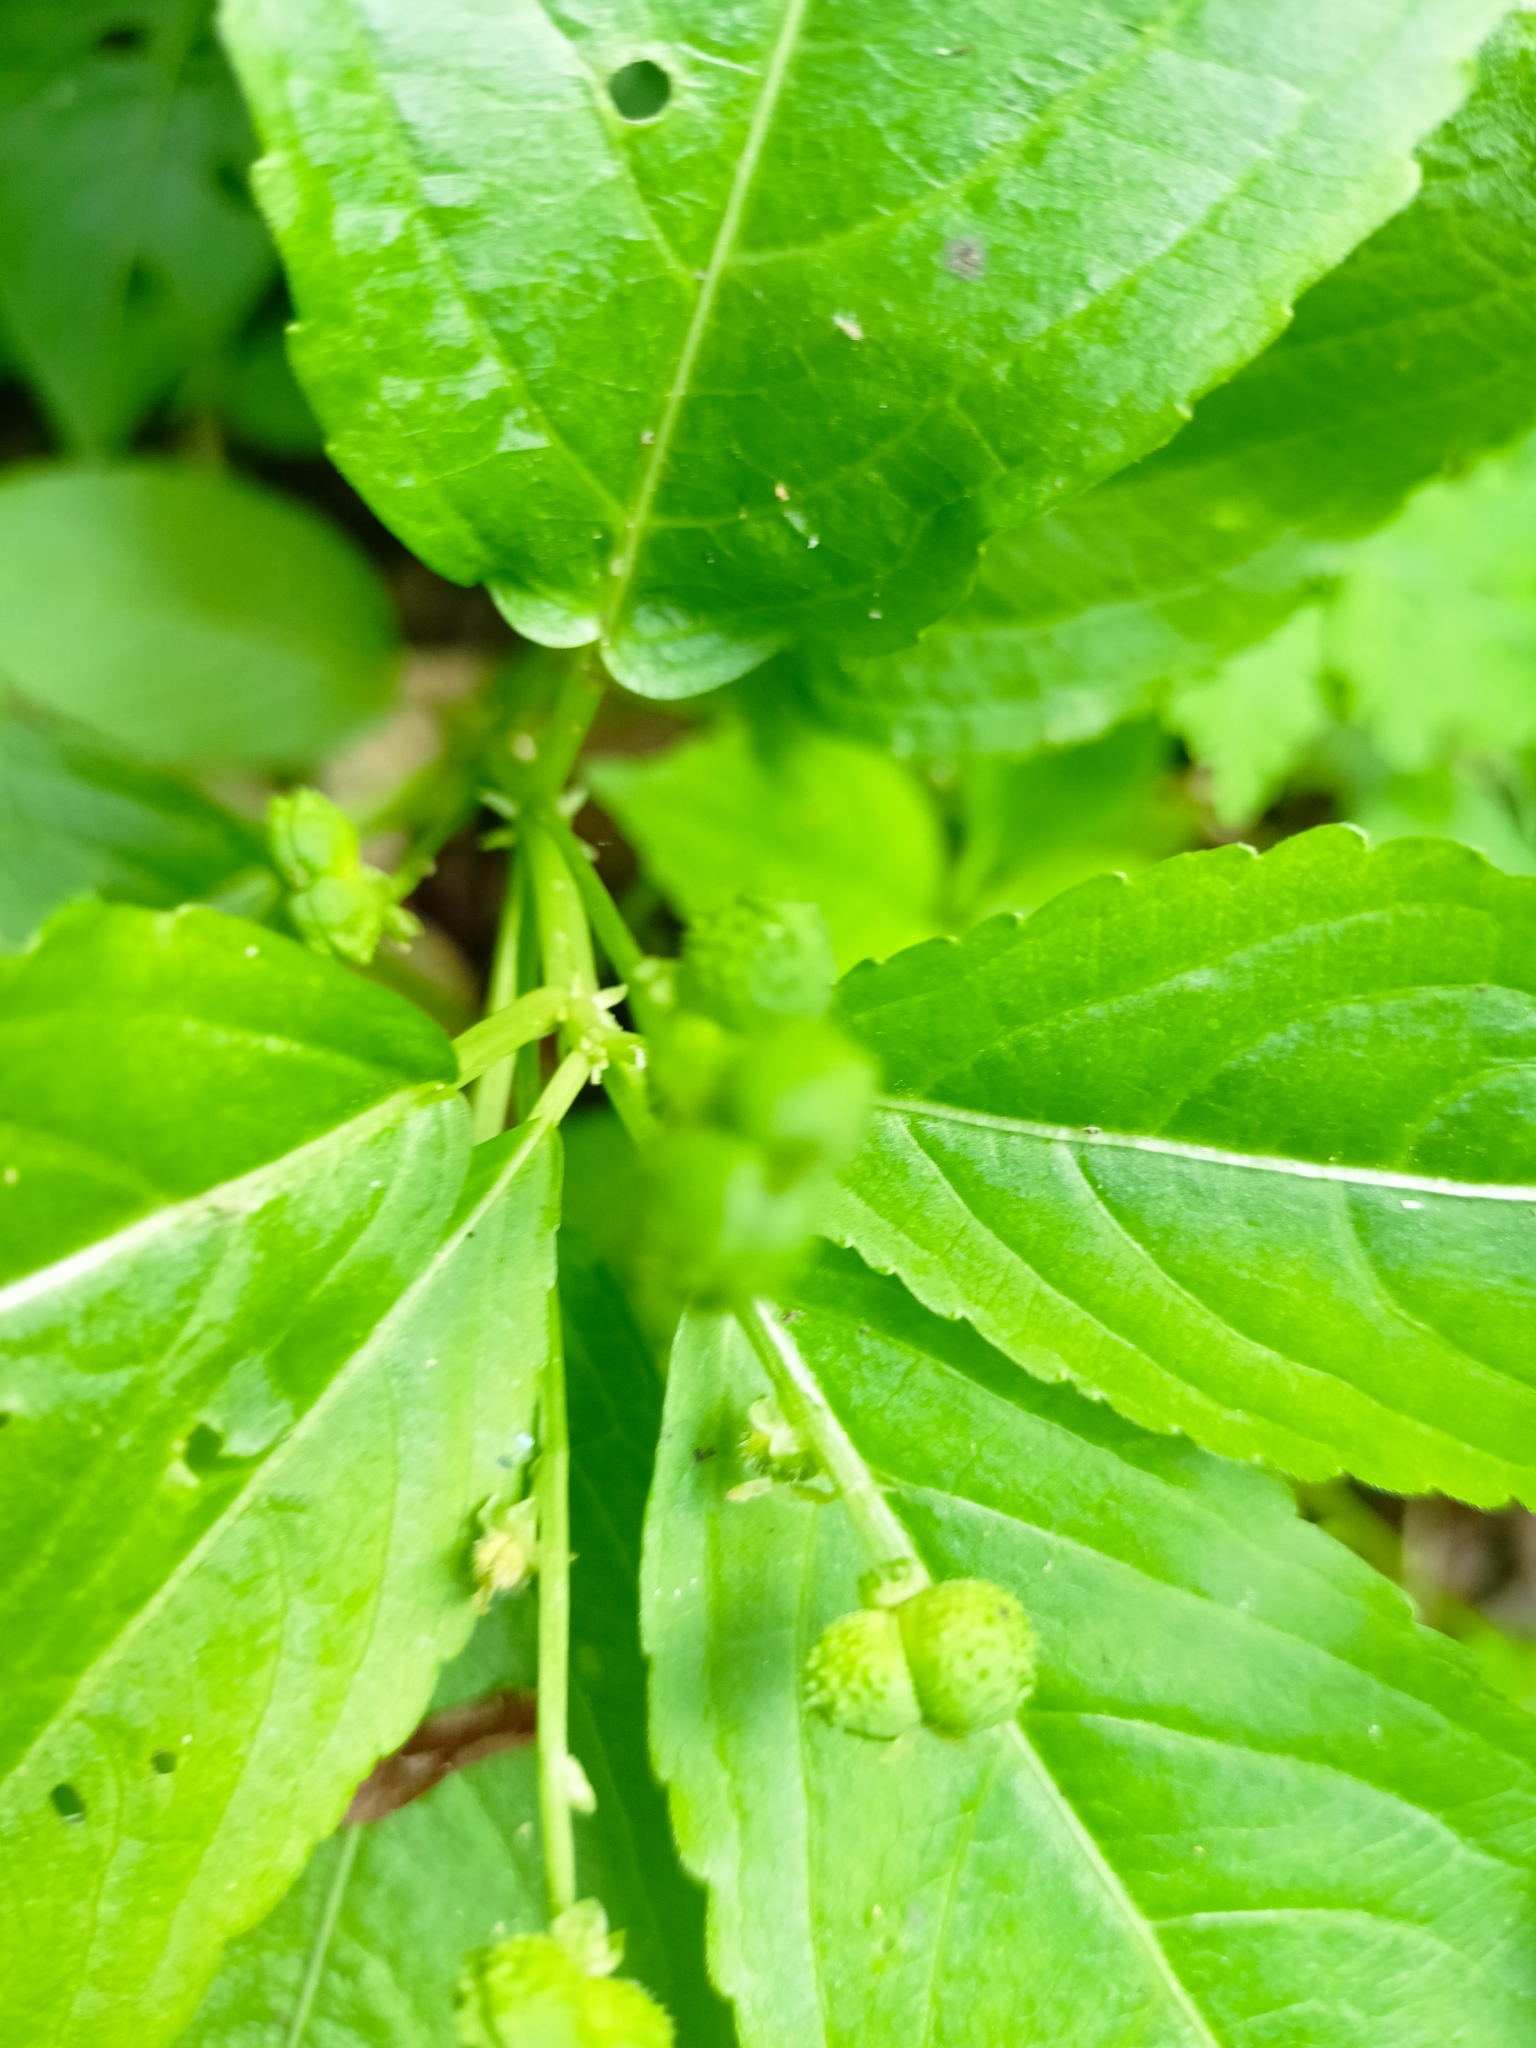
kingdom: Plantae
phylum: Tracheophyta
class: Magnoliopsida
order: Malpighiales
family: Euphorbiaceae
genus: Mercurialis
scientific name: Mercurialis perennis
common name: Dog mercury
